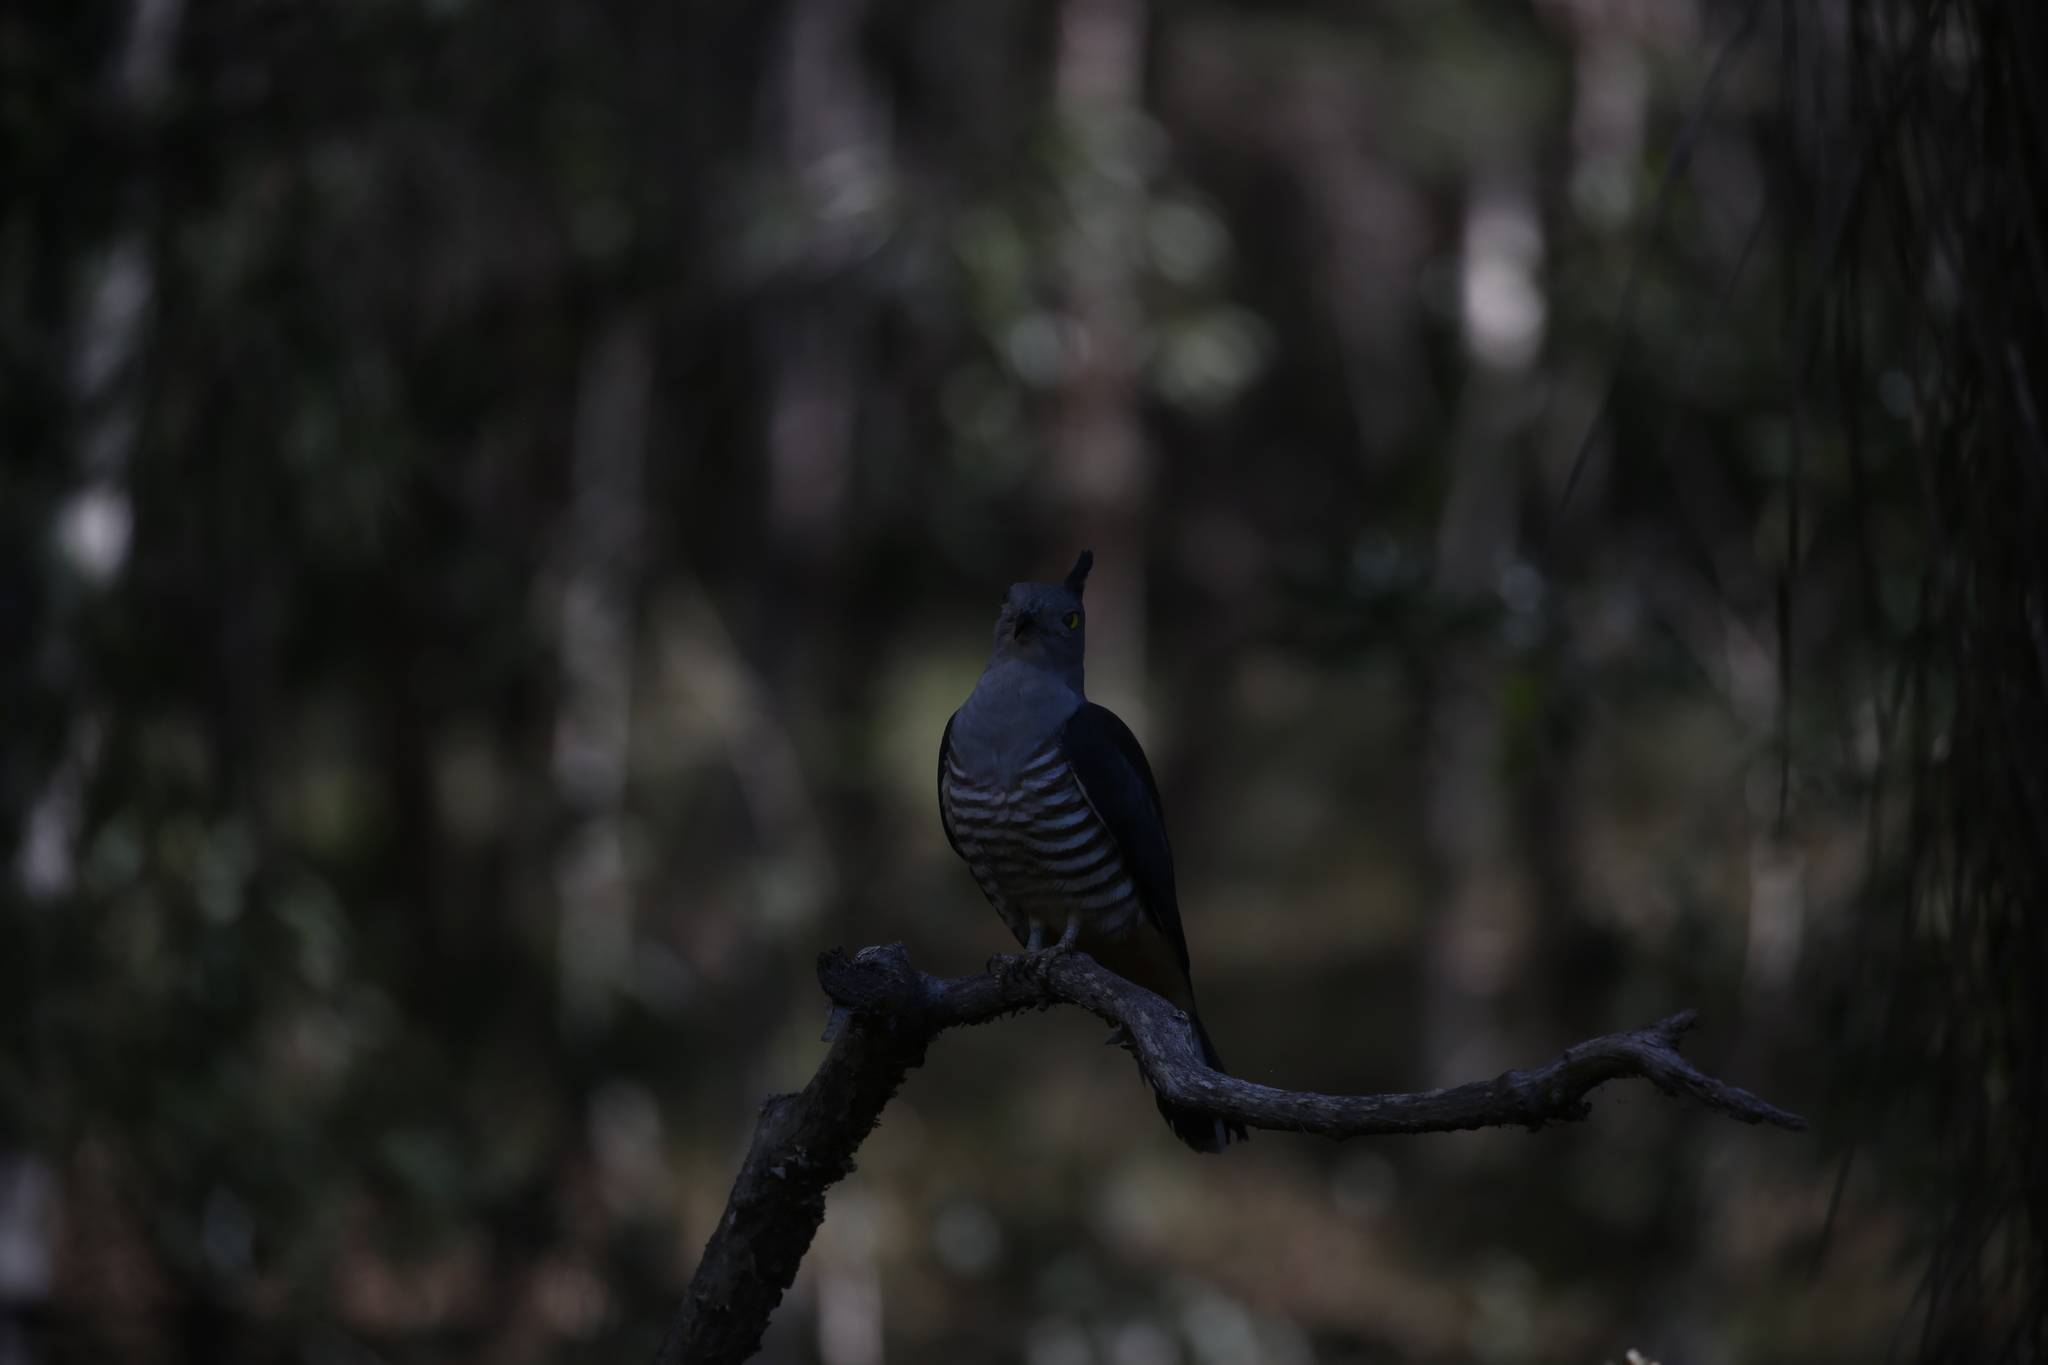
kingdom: Animalia
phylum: Chordata
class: Aves
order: Accipitriformes
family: Accipitridae
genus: Aviceda
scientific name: Aviceda subcristata
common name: Pacific baza
